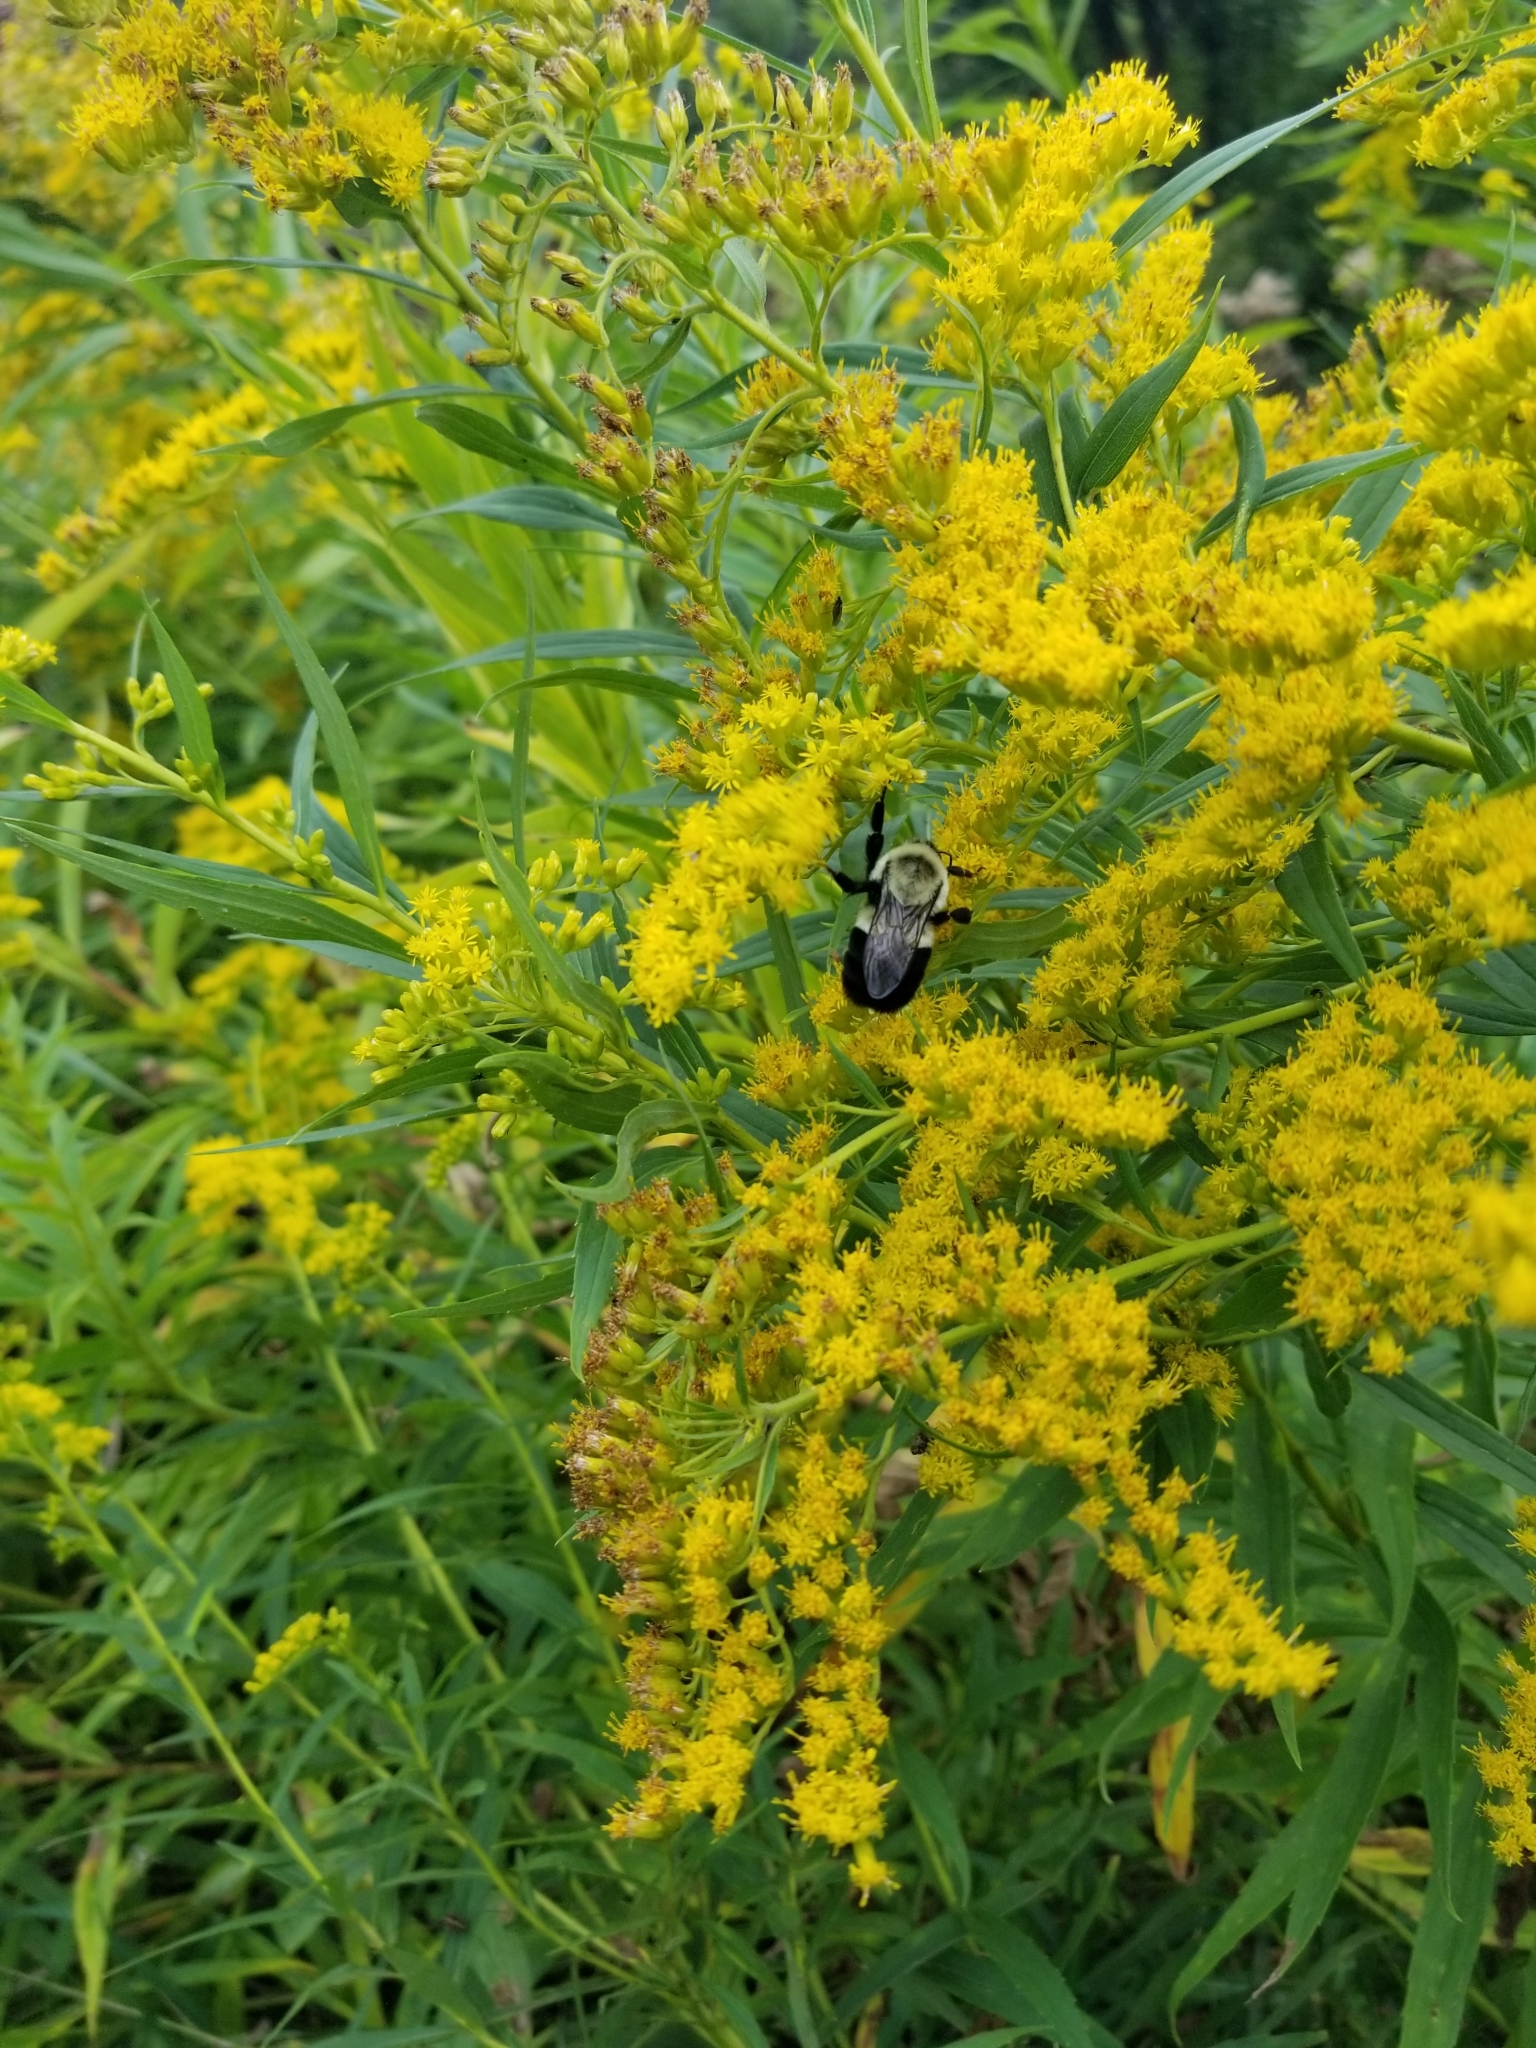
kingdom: Animalia
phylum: Arthropoda
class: Insecta
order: Hymenoptera
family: Apidae
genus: Bombus
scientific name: Bombus impatiens
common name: Common eastern bumble bee
